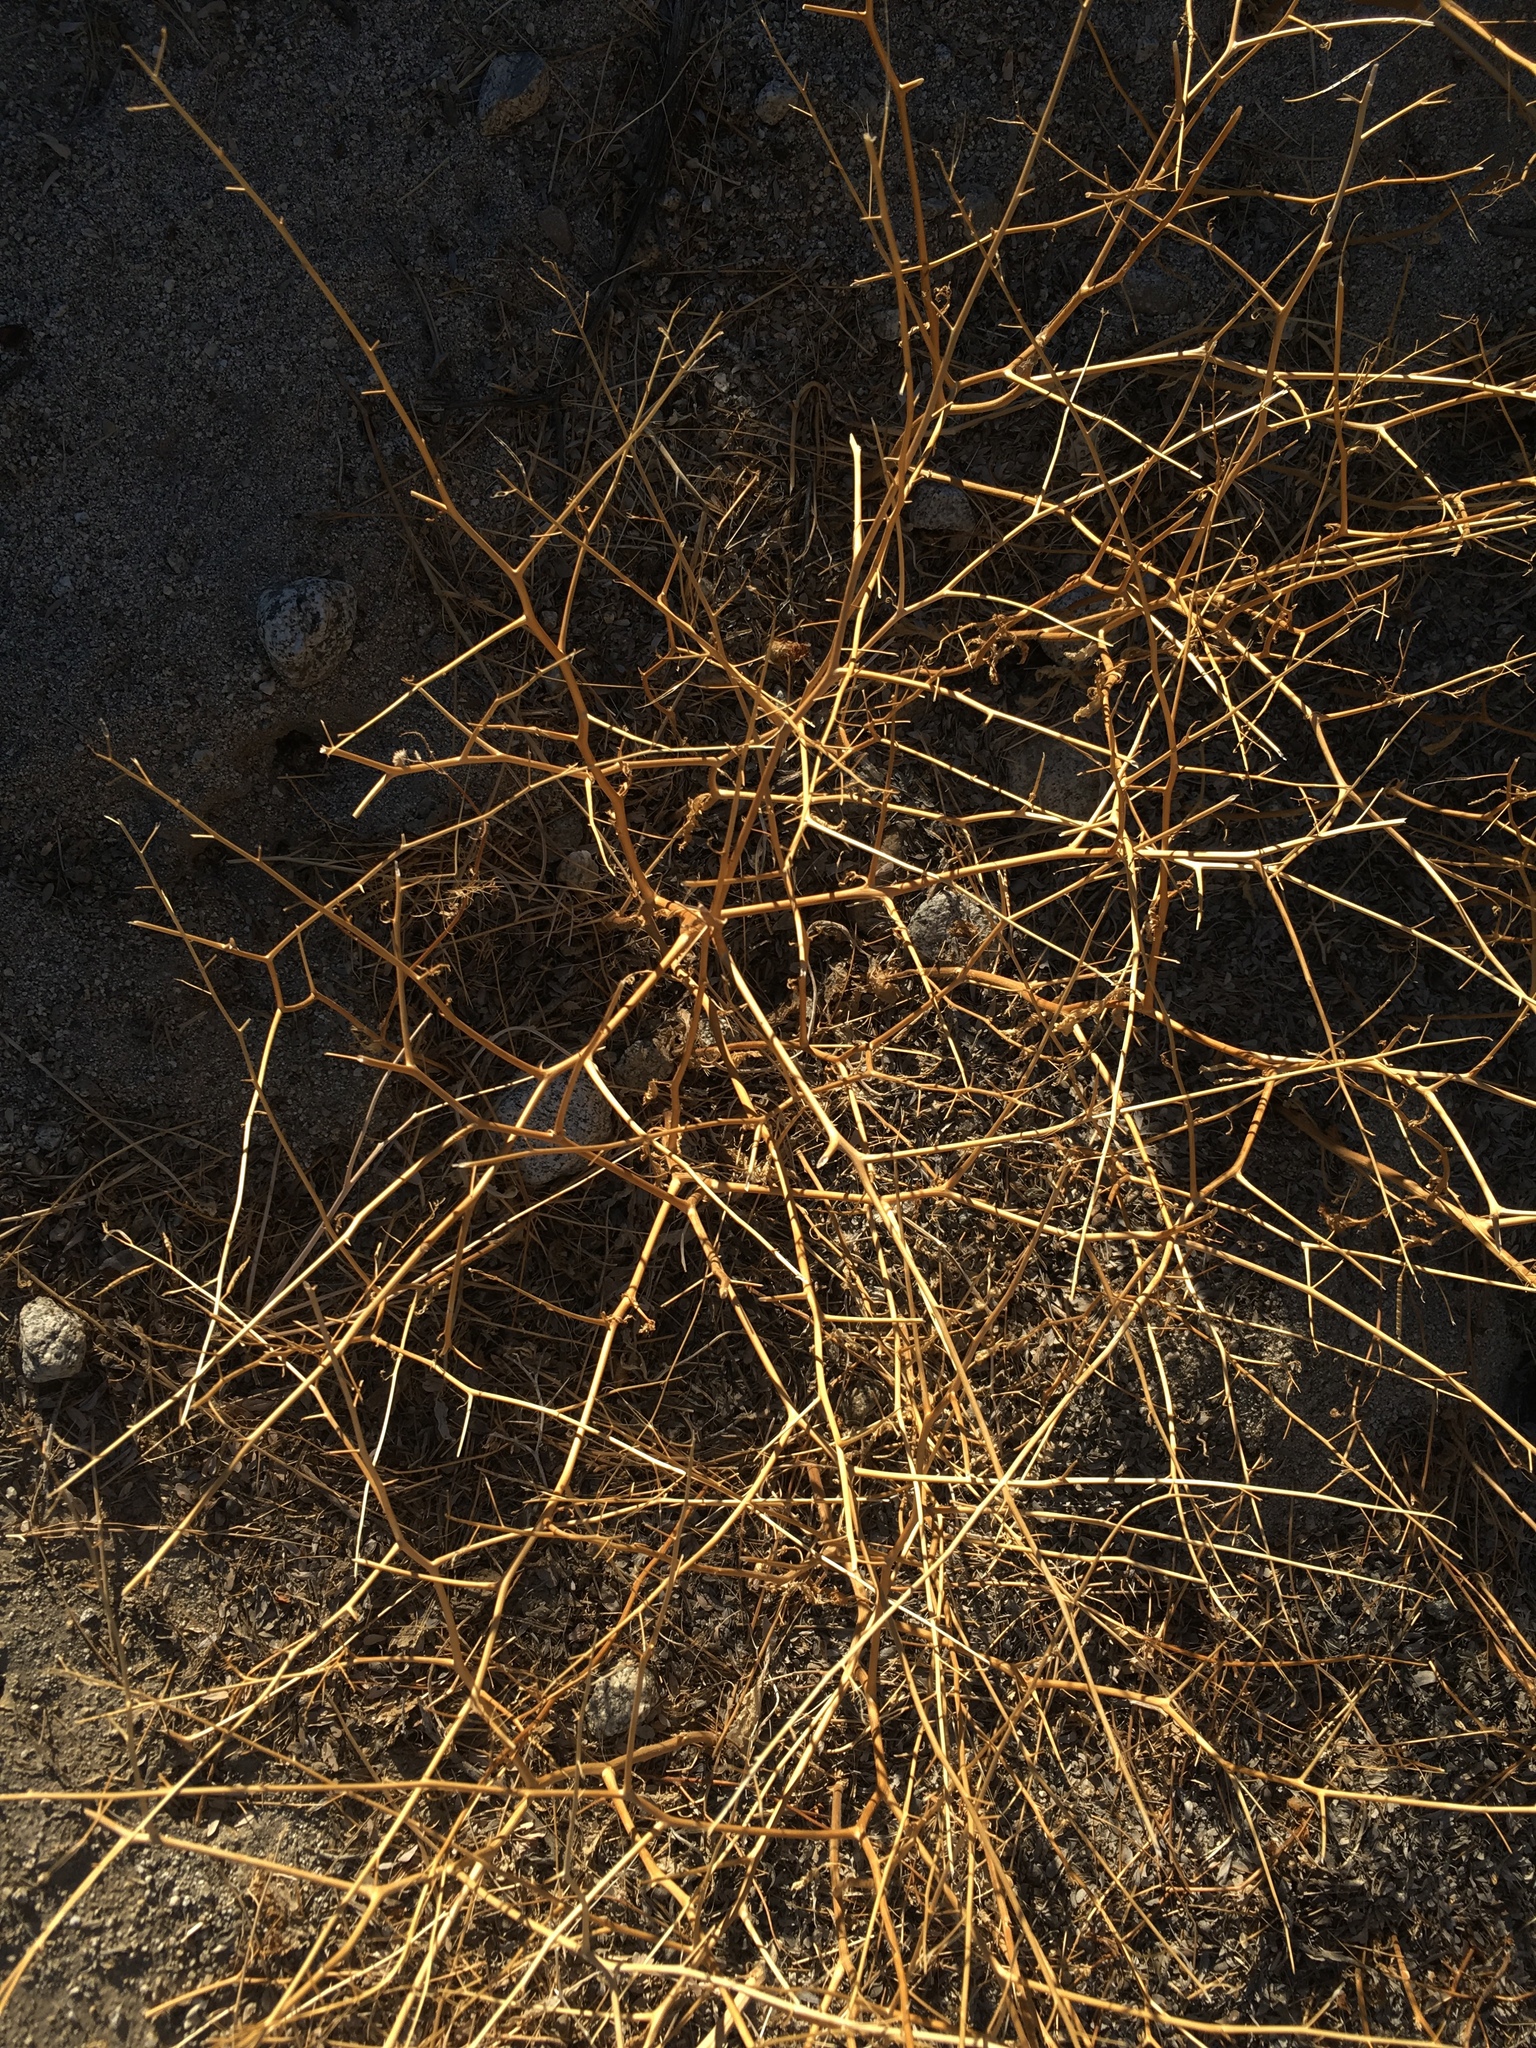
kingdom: Plantae
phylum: Tracheophyta
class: Magnoliopsida
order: Brassicales
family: Brassicaceae
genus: Brassica
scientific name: Brassica tournefortii
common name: Pale cabbage
